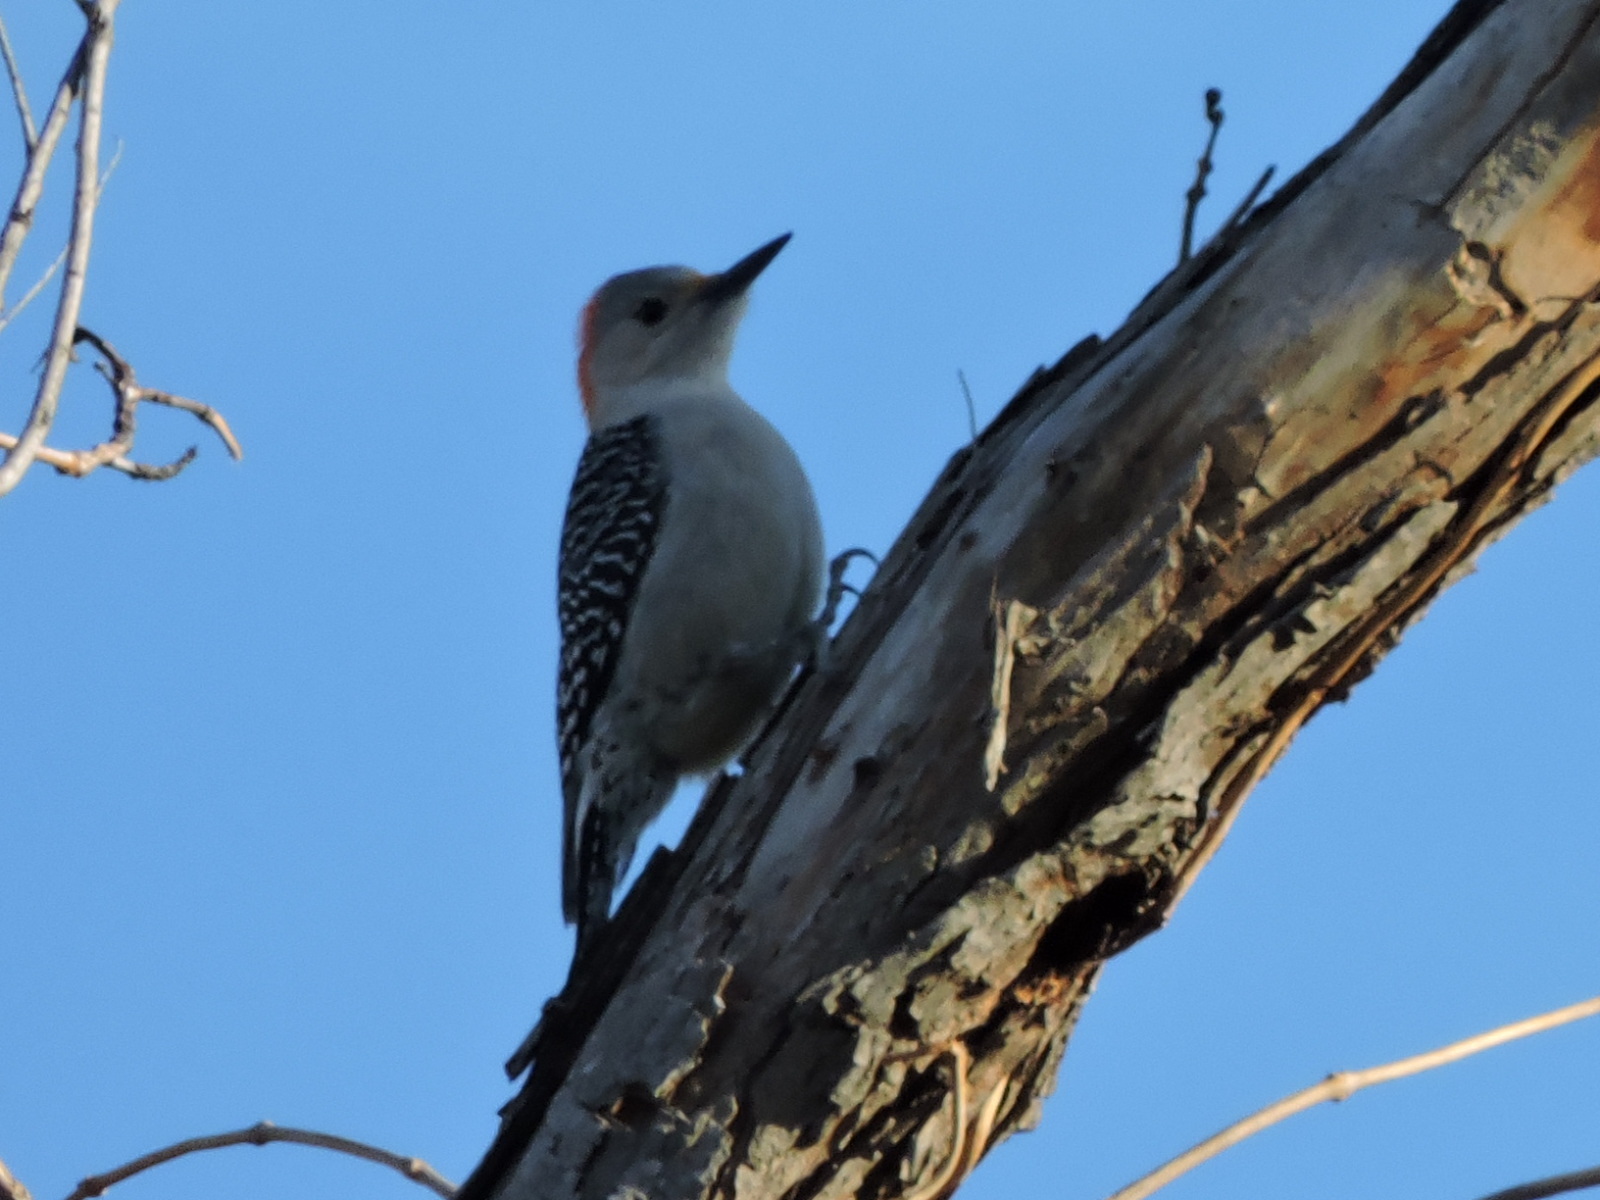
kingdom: Animalia
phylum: Chordata
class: Aves
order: Piciformes
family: Picidae
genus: Melanerpes
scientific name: Melanerpes carolinus
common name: Red-bellied woodpecker
